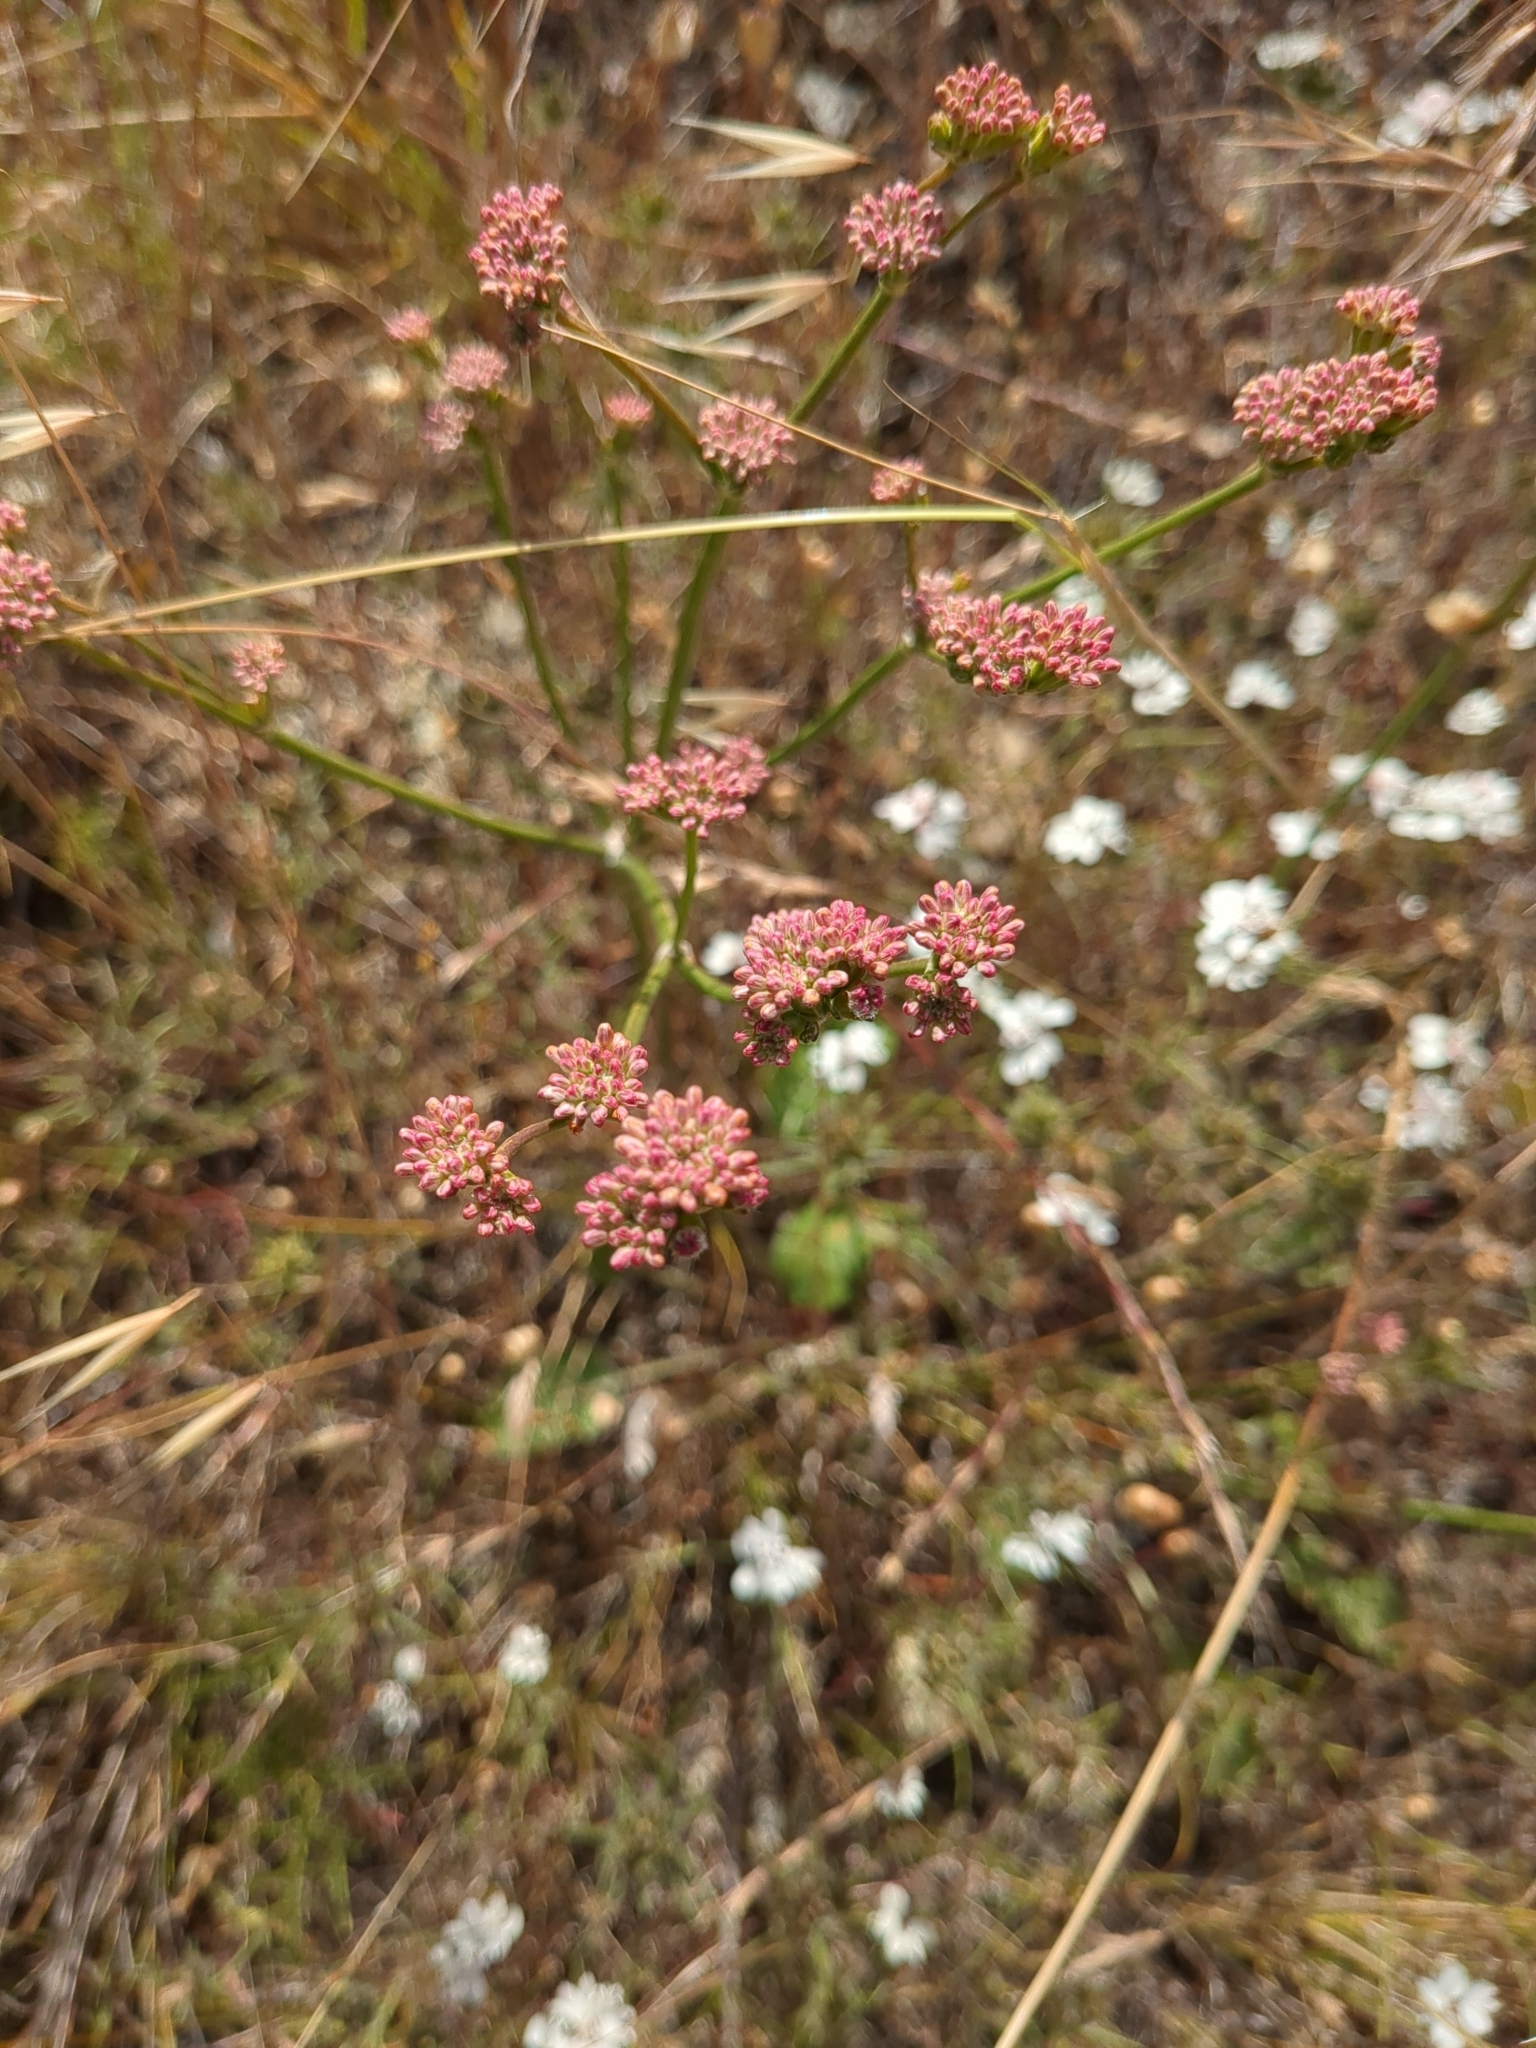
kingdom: Plantae
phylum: Tracheophyta
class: Magnoliopsida
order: Caryophyllales
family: Polygonaceae
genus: Eriogonum
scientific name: Eriogonum nudum
